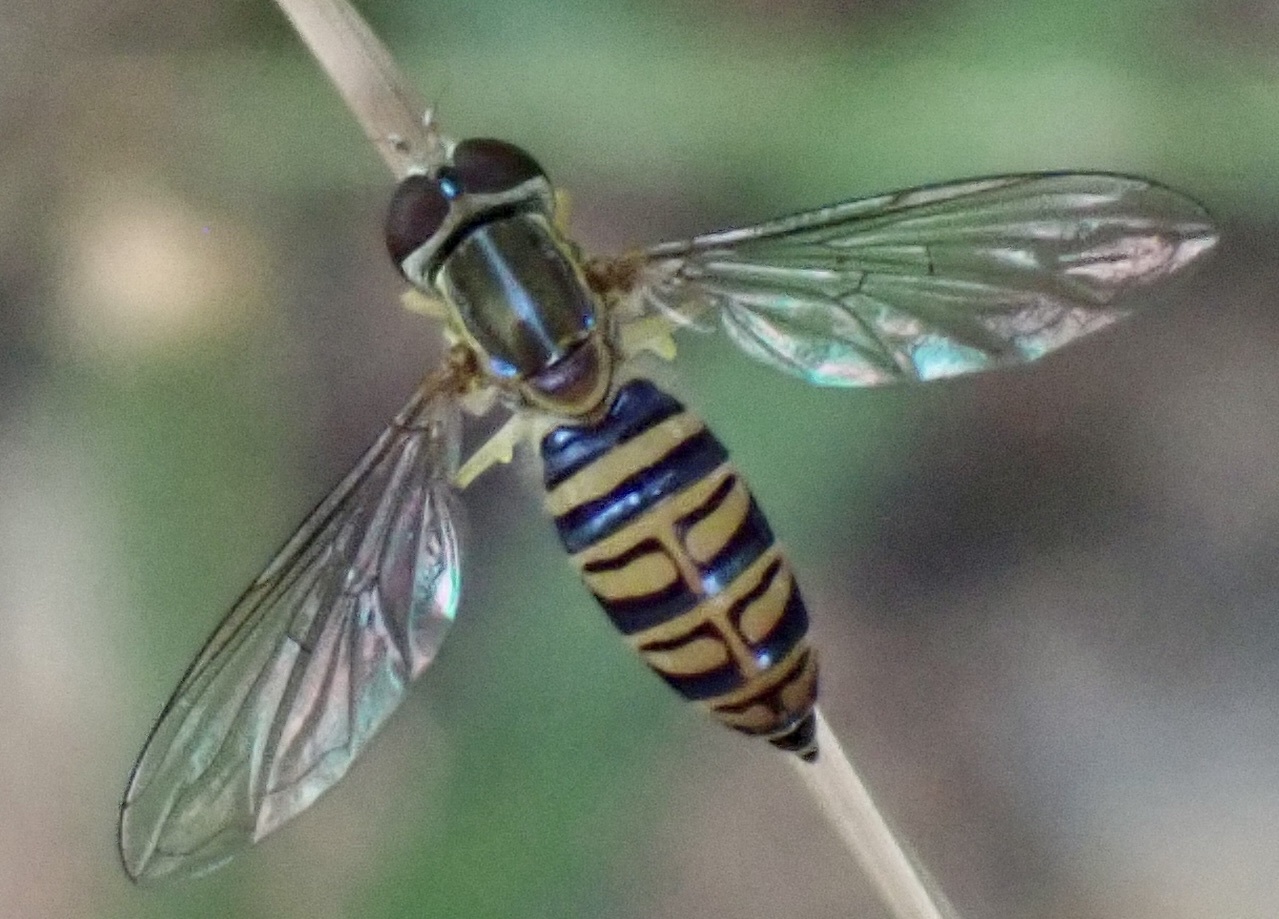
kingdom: Animalia
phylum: Arthropoda
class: Insecta
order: Diptera
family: Syrphidae
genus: Toxomerus
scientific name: Toxomerus politus
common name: Maize calligrapher
